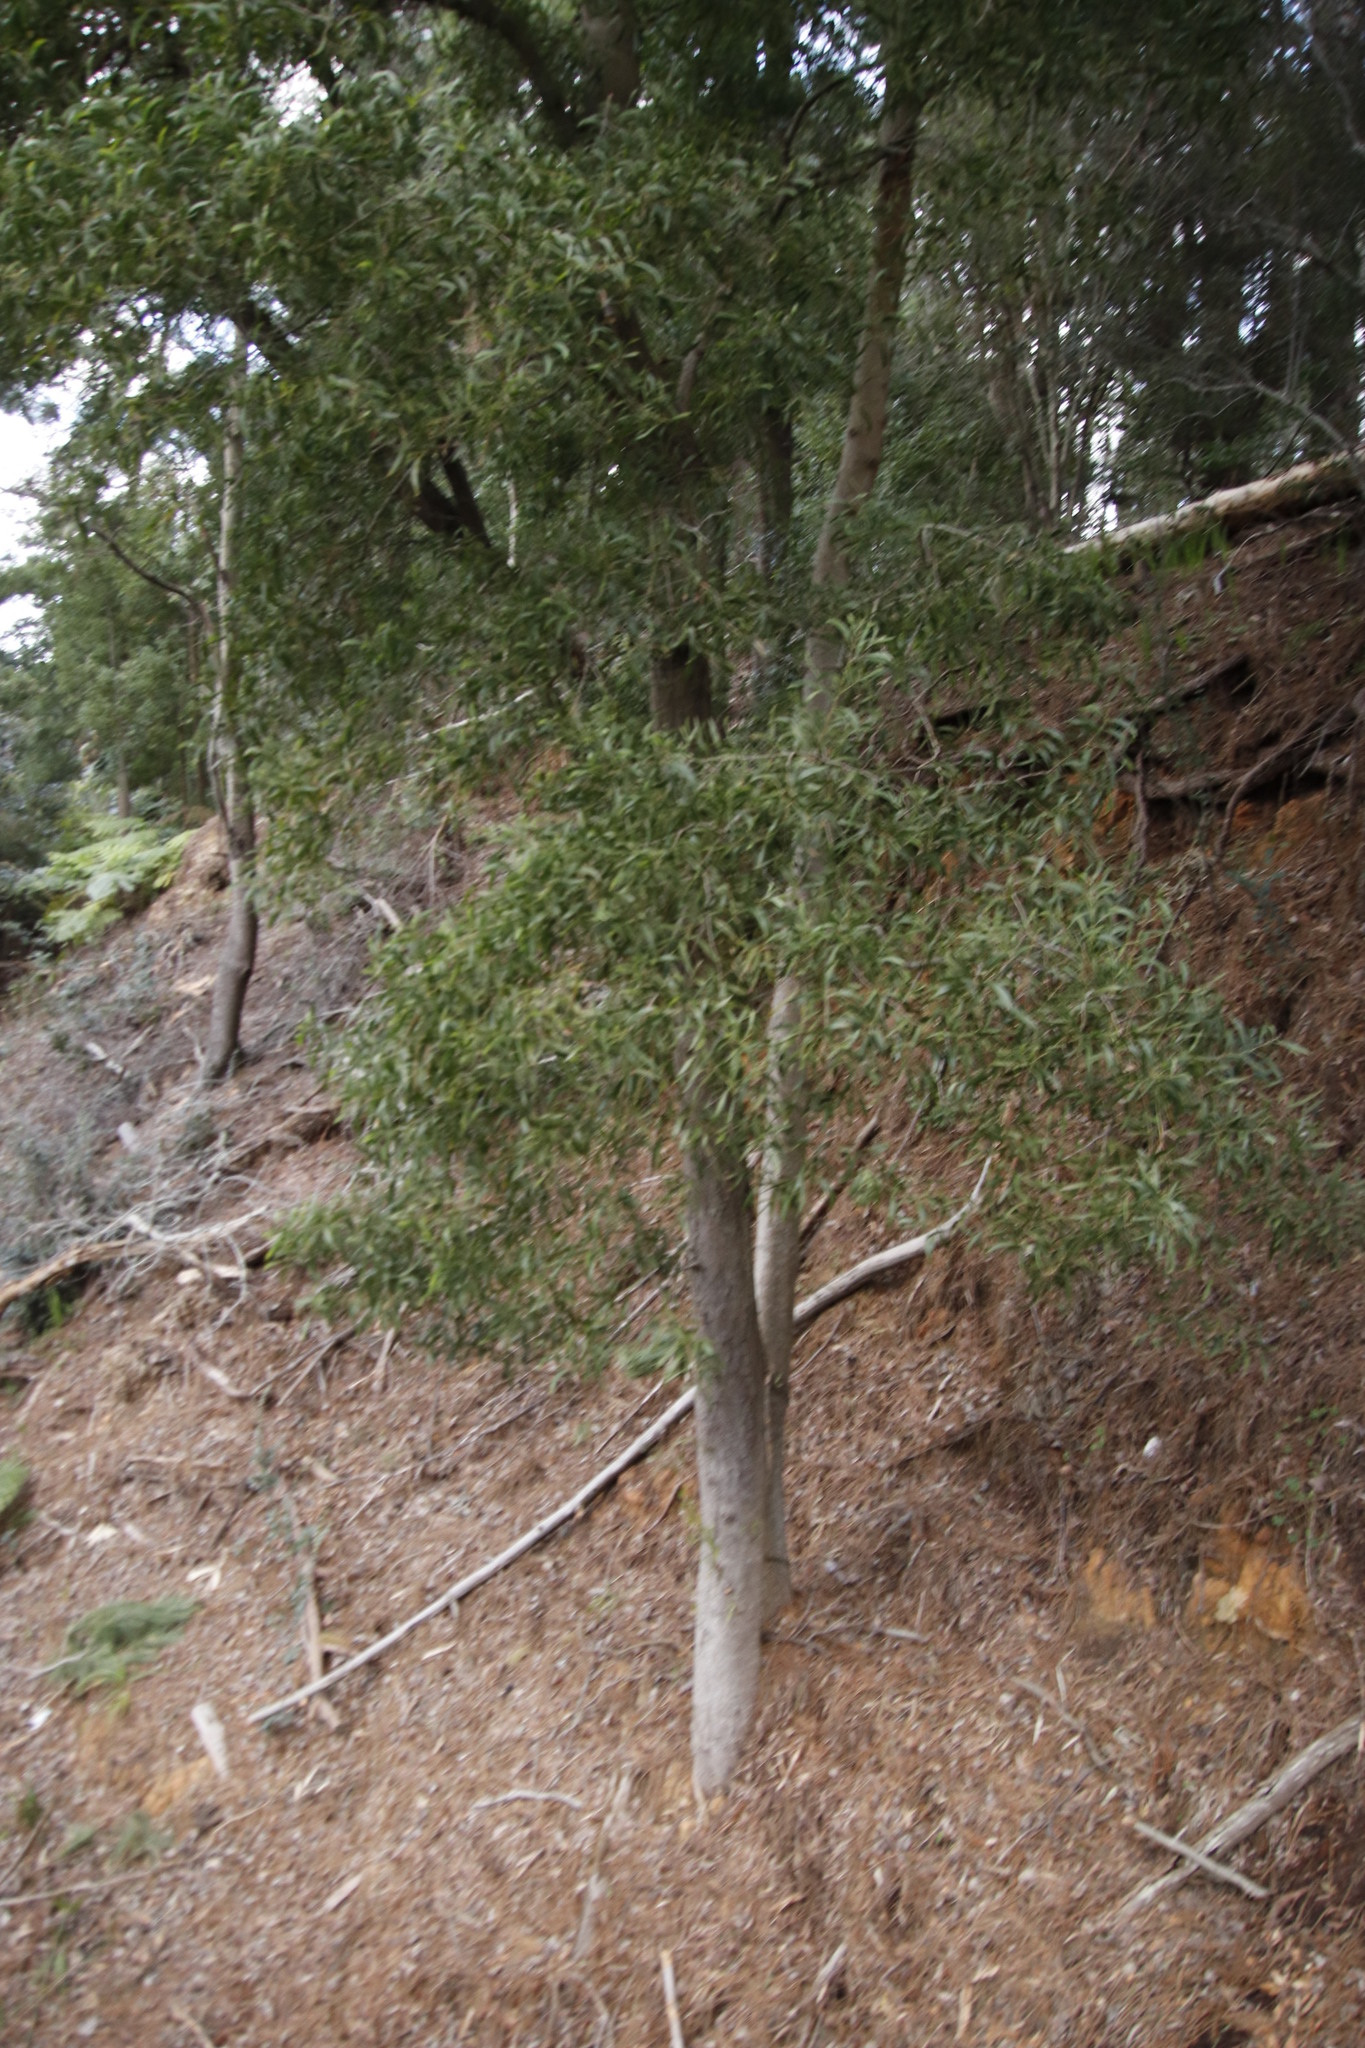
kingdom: Plantae
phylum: Tracheophyta
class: Magnoliopsida
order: Fabales
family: Fabaceae
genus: Acacia
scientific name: Acacia melanoxylon
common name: Blackwood
